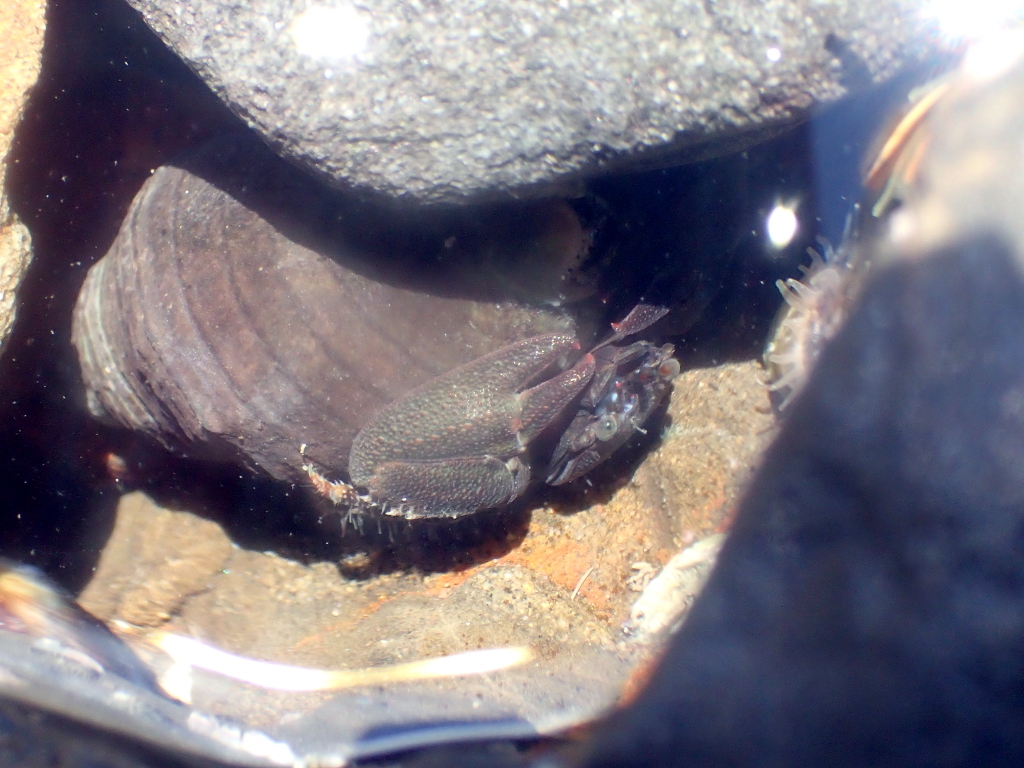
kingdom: Animalia
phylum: Arthropoda
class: Malacostraca
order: Decapoda
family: Porcellanidae
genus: Petrolisthes
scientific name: Petrolisthes elongatus
